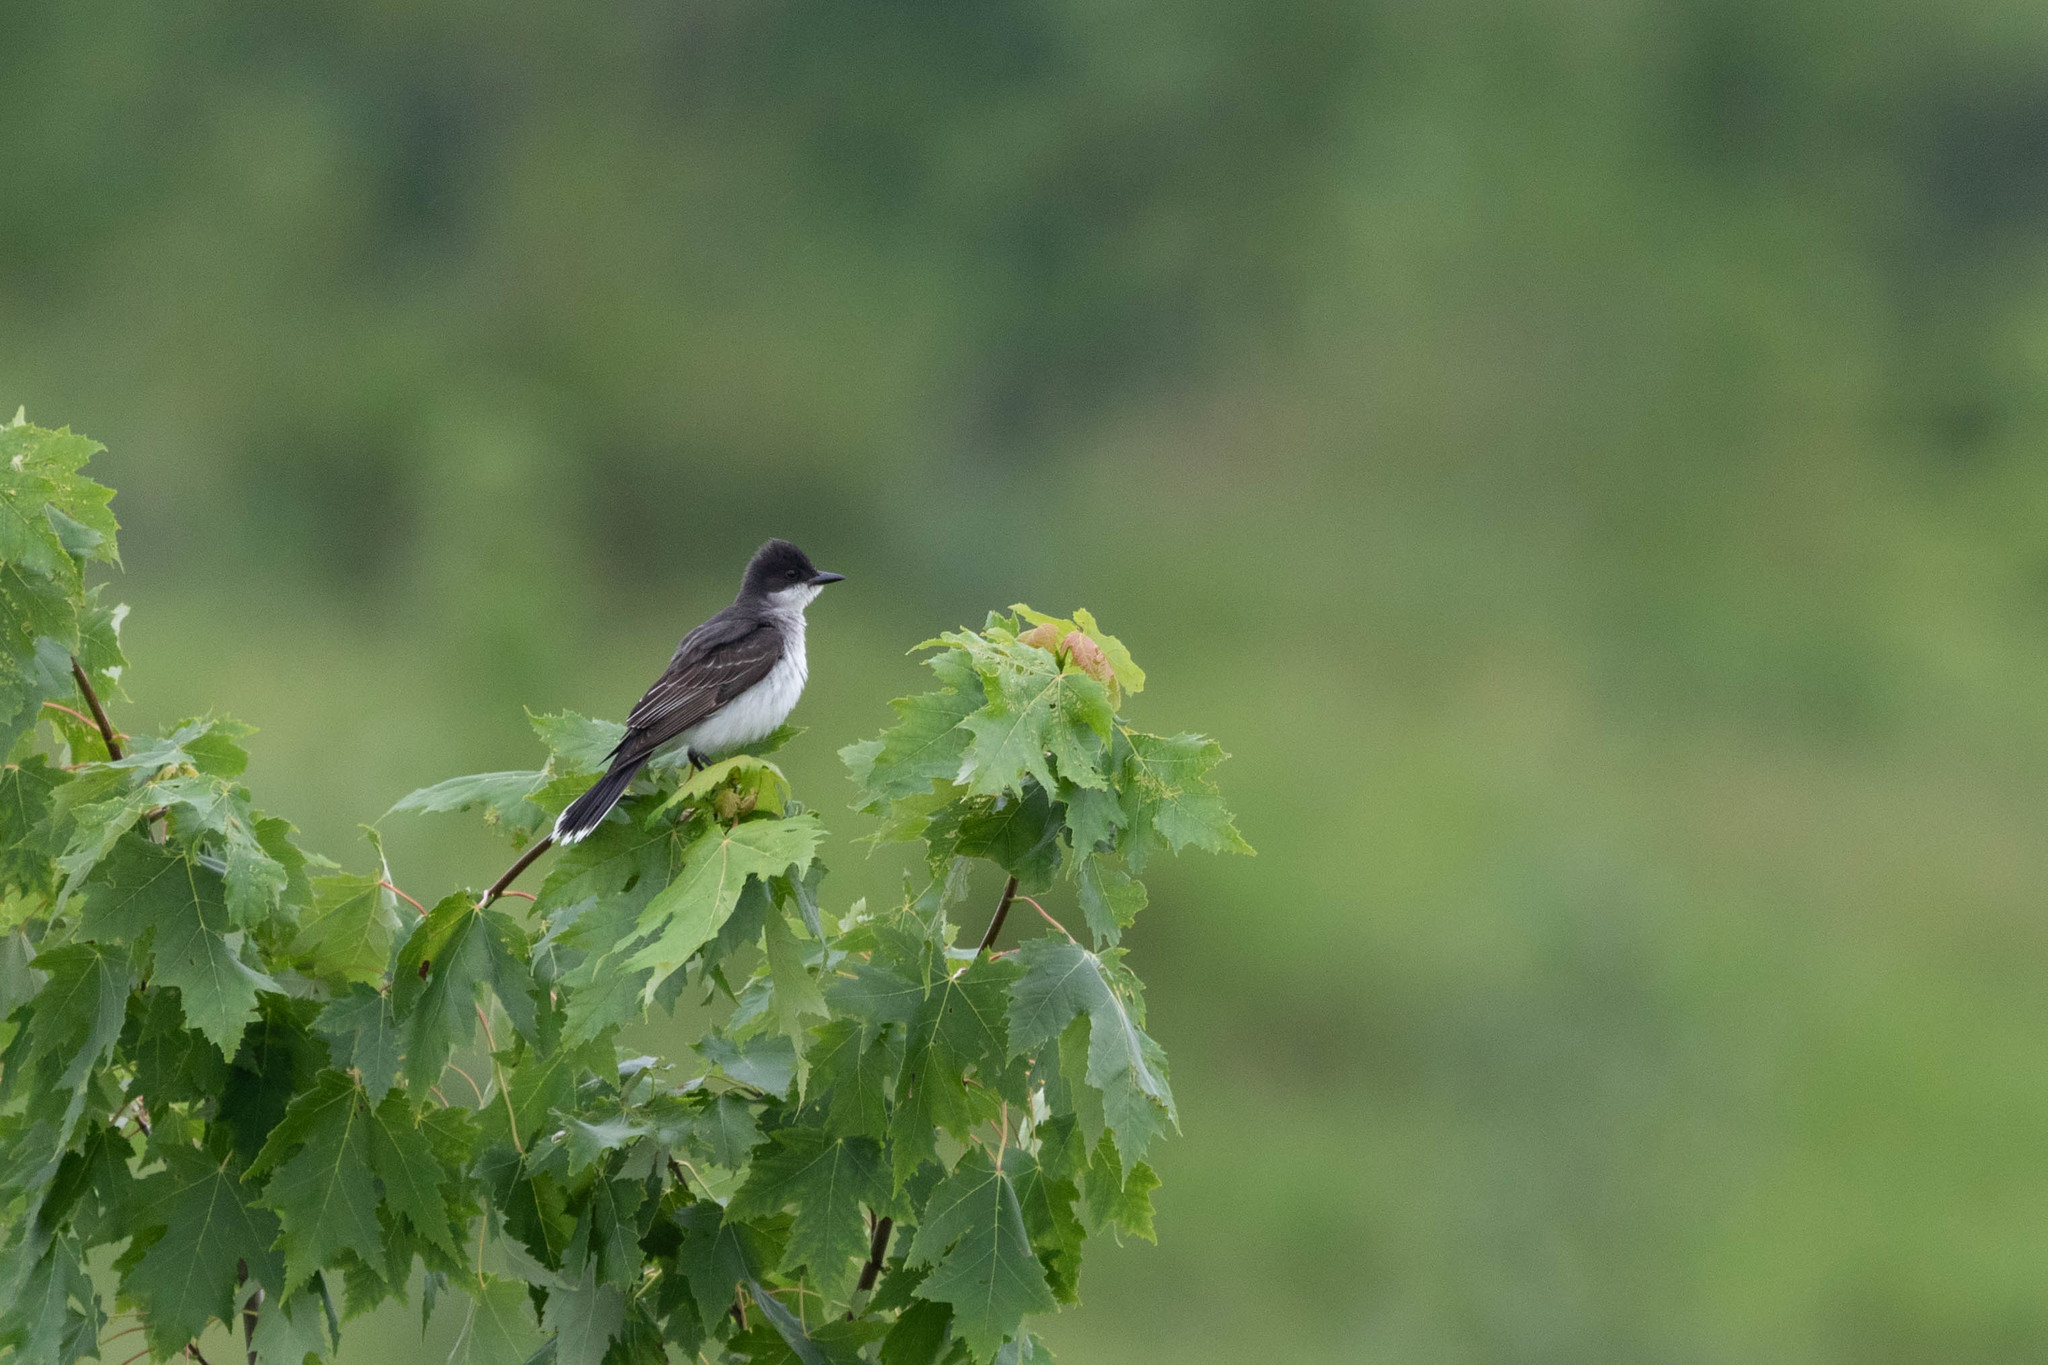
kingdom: Animalia
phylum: Chordata
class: Aves
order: Passeriformes
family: Tyrannidae
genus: Tyrannus
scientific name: Tyrannus tyrannus
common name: Eastern kingbird
